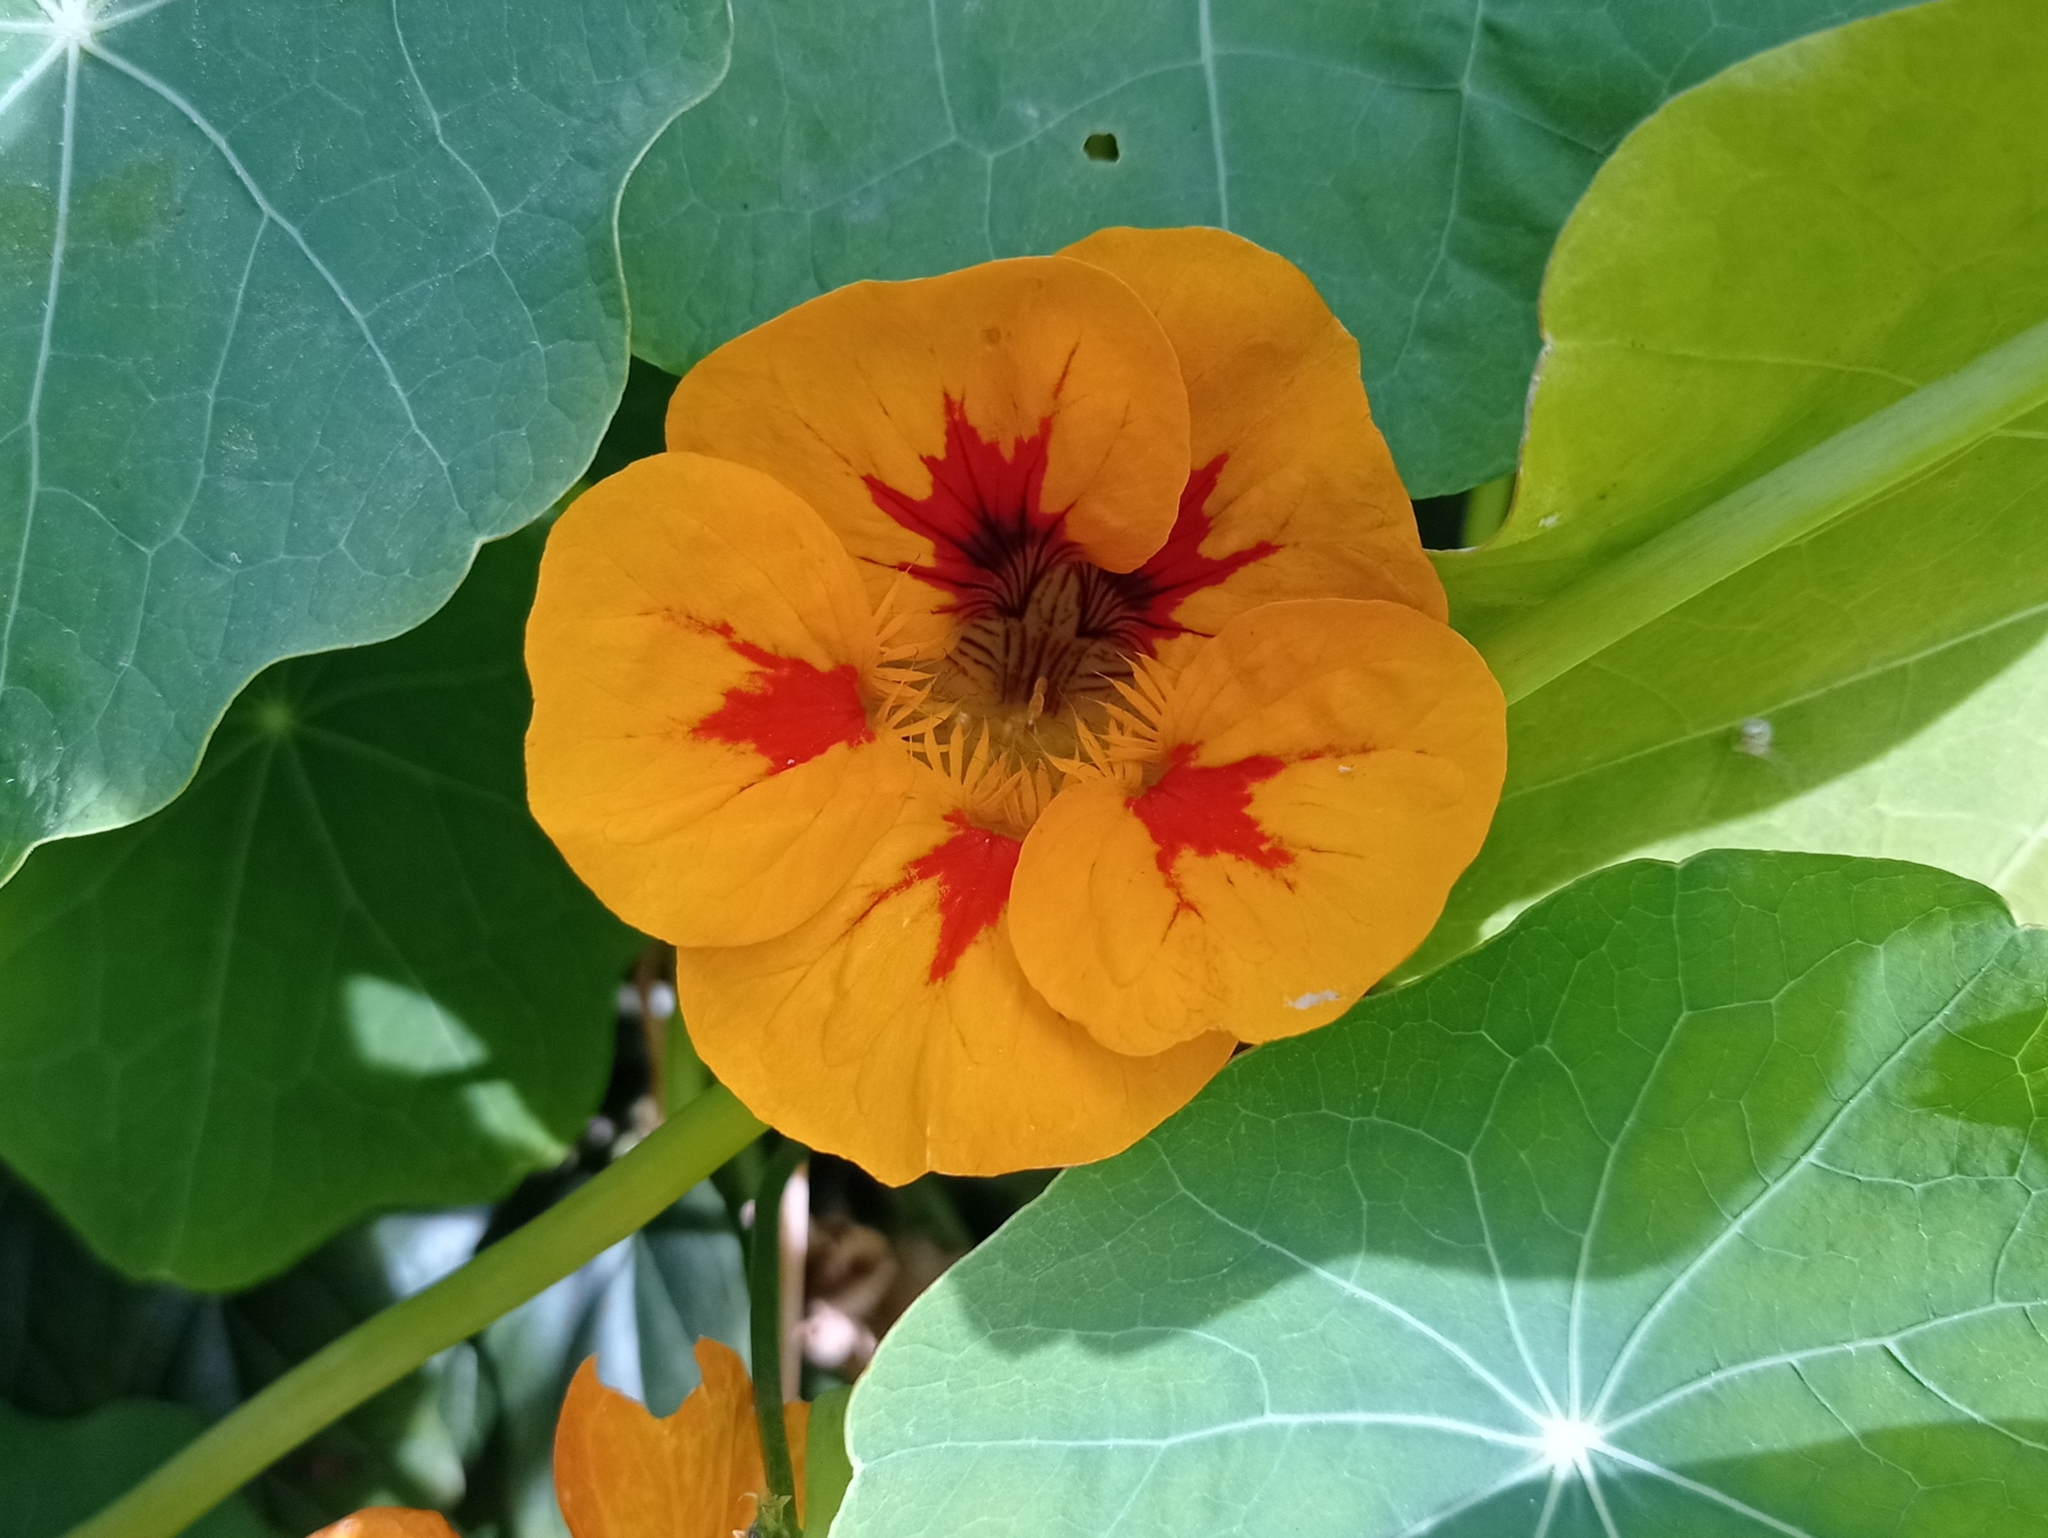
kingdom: Plantae
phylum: Tracheophyta
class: Magnoliopsida
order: Brassicales
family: Tropaeolaceae
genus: Tropaeolum
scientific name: Tropaeolum majus
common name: Nasturtium
